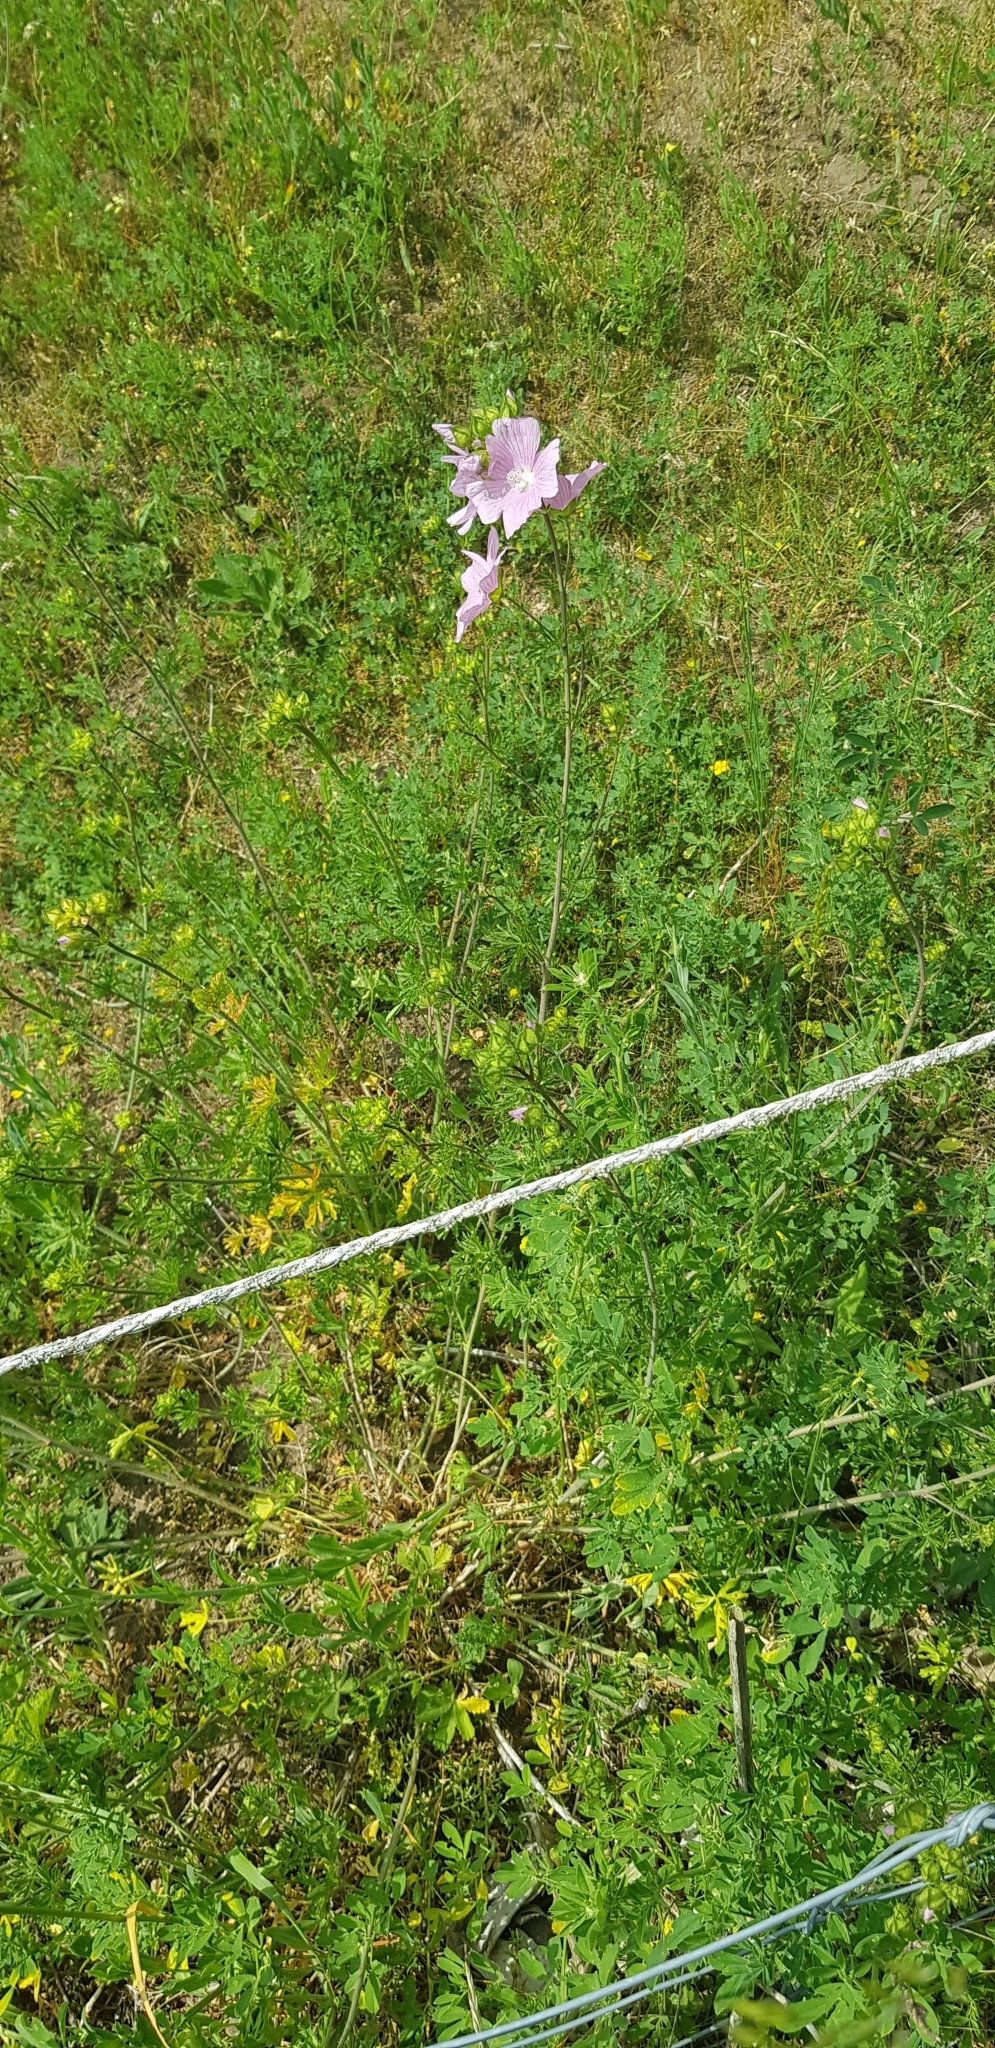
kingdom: Plantae
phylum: Tracheophyta
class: Magnoliopsida
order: Malvales
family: Malvaceae
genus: Malva
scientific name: Malva moschata
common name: Musk mallow
